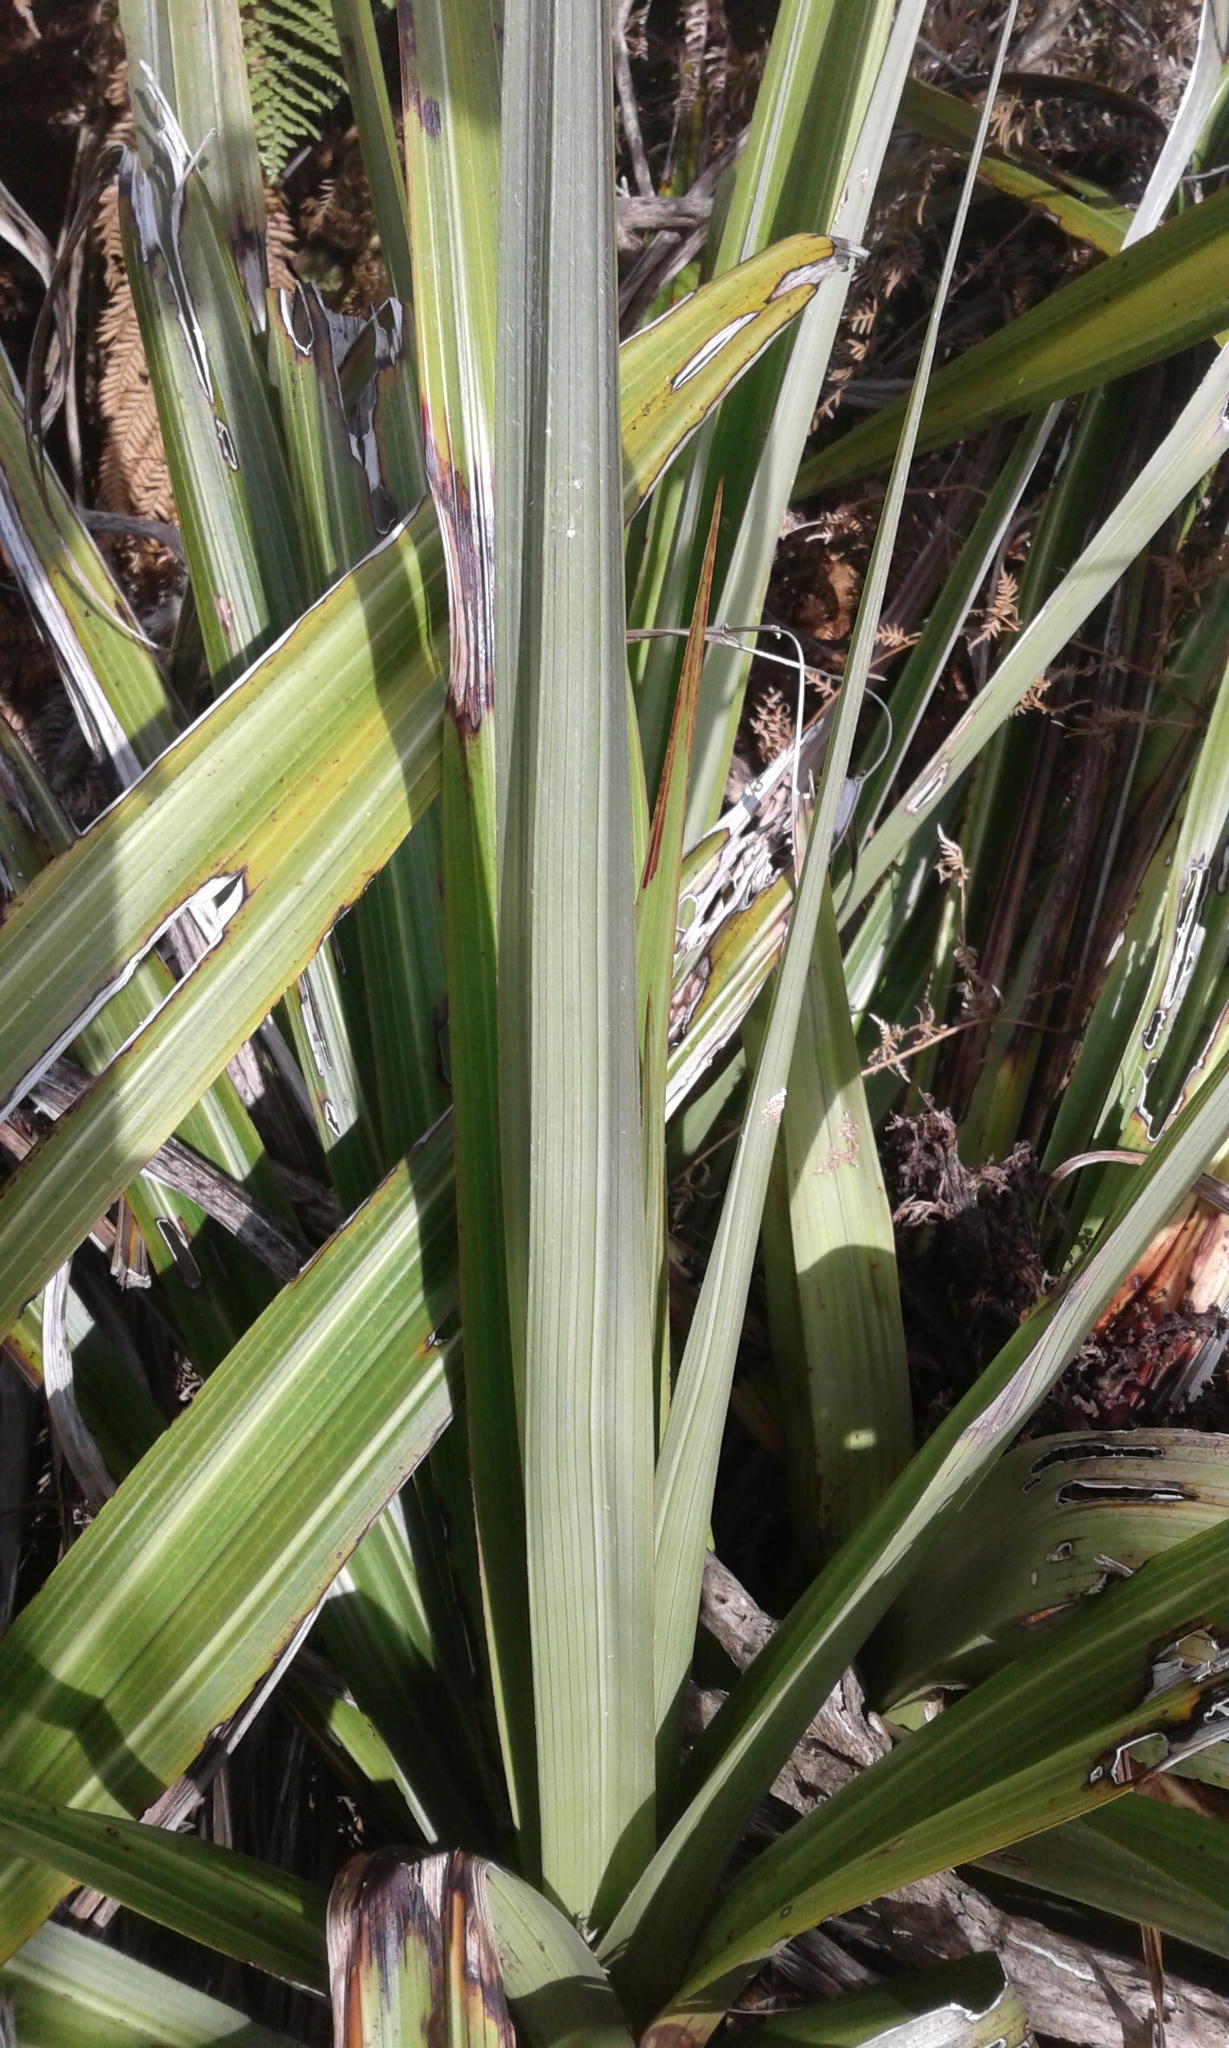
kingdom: Plantae
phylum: Tracheophyta
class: Liliopsida
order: Asparagales
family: Asteliaceae
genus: Astelia
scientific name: Astelia grandis
